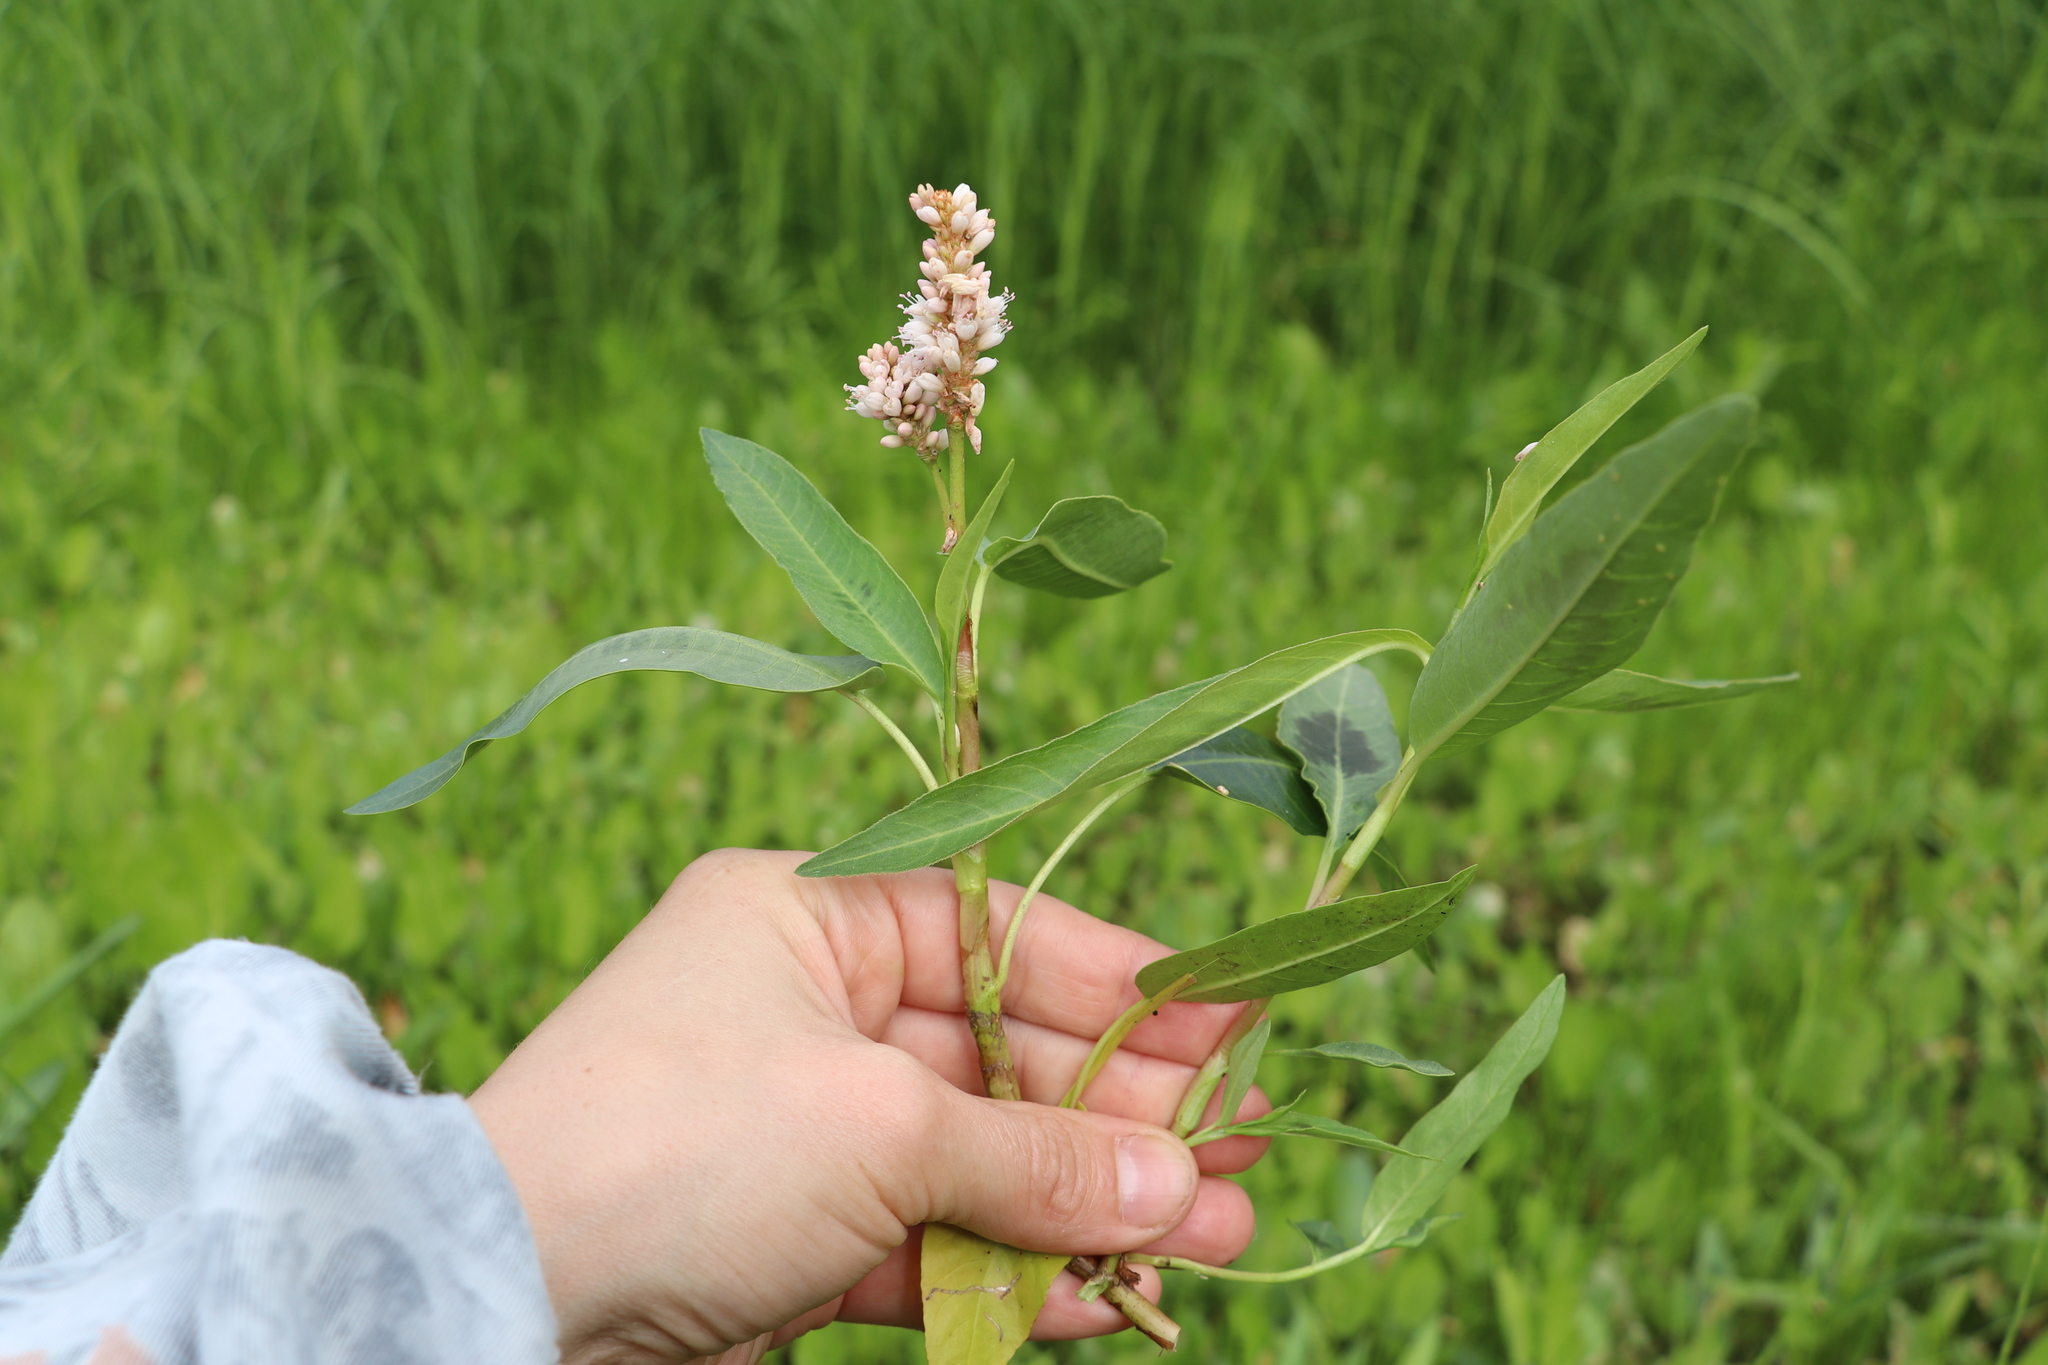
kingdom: Plantae
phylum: Tracheophyta
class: Magnoliopsida
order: Caryophyllales
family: Polygonaceae
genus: Persicaria
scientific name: Persicaria amphibia
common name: Amphibious bistort
